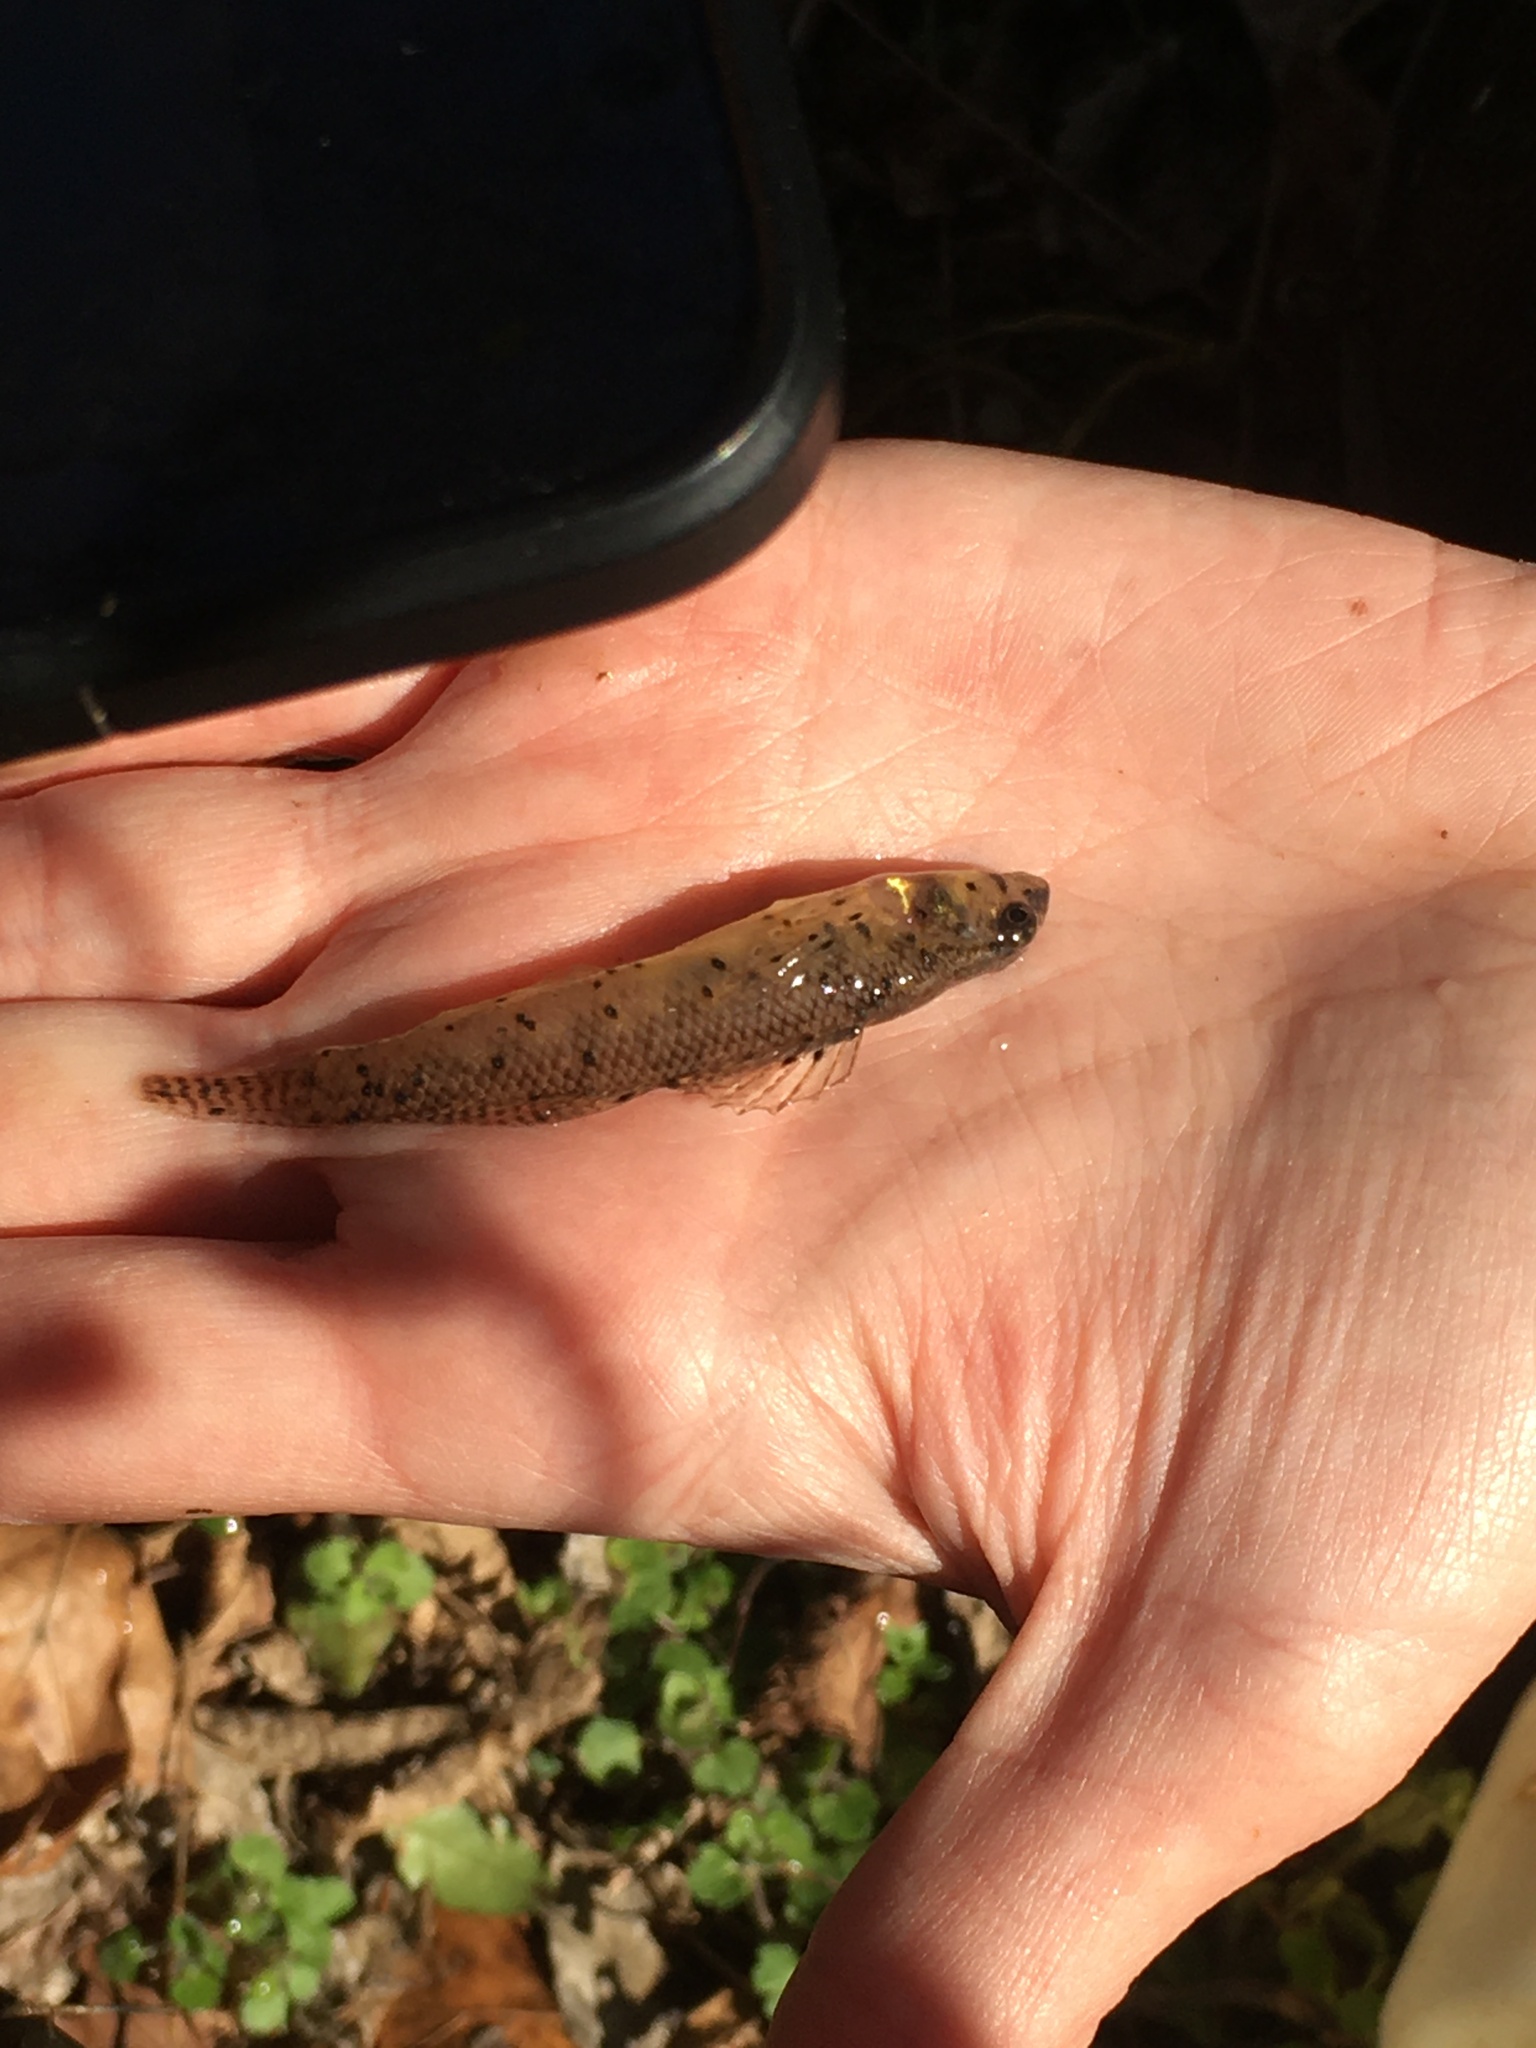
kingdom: Animalia
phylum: Chordata
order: Perciformes
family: Percidae
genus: Etheostoma
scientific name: Etheostoma olmstedi
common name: Tessellated darter
